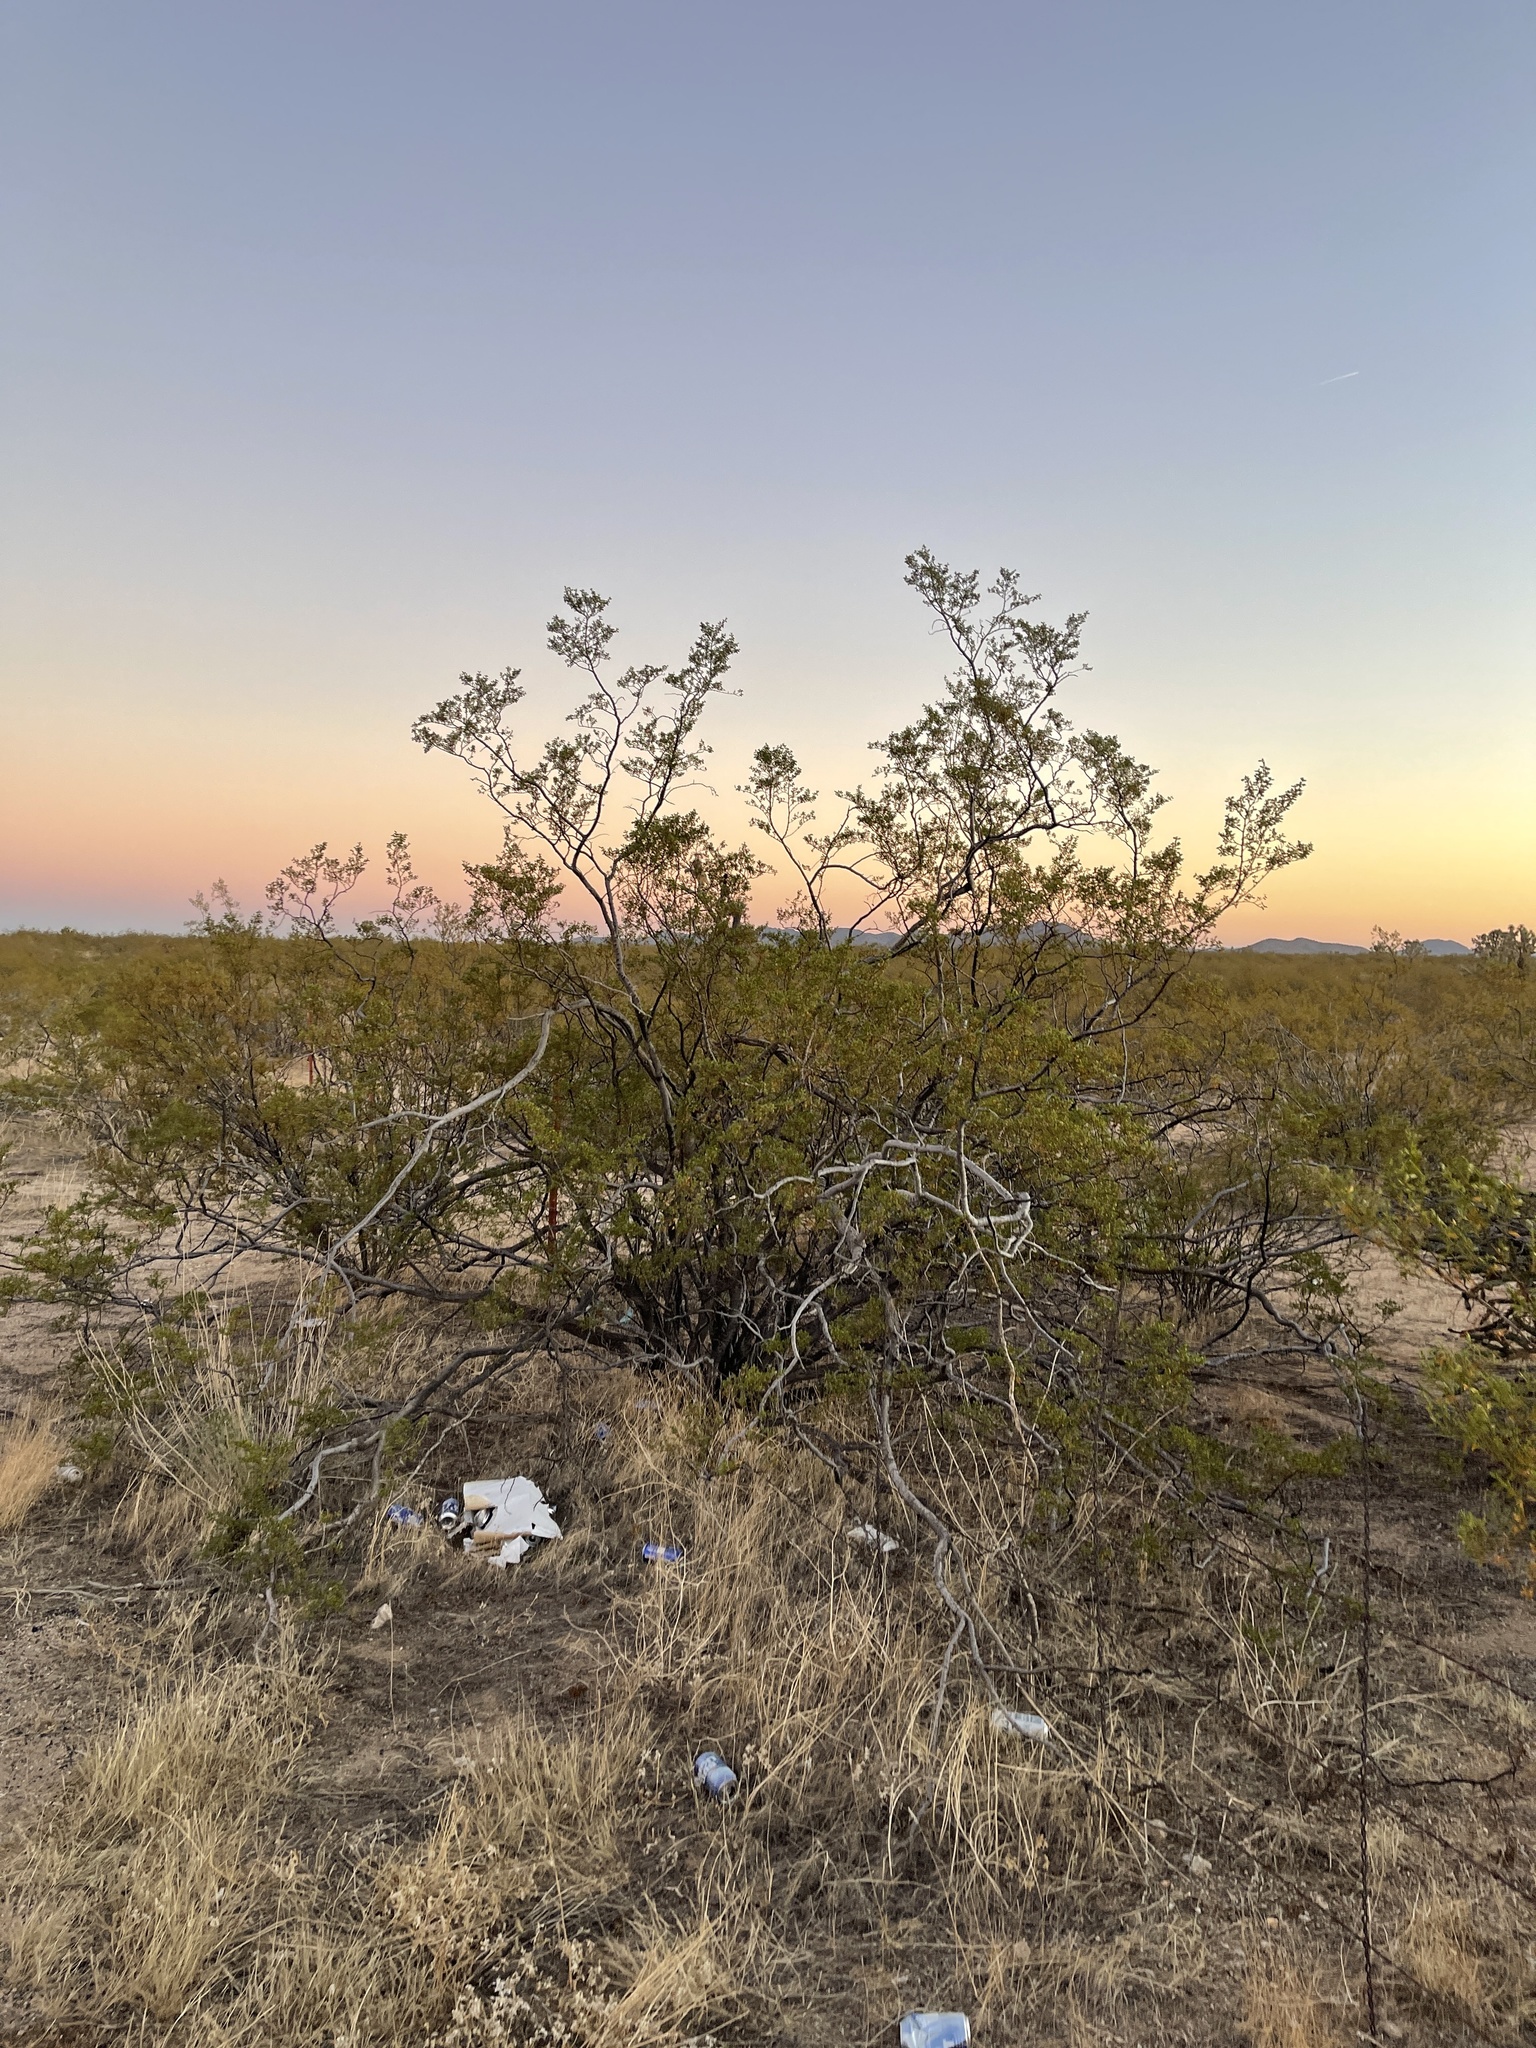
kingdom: Plantae
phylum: Tracheophyta
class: Magnoliopsida
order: Zygophyllales
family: Zygophyllaceae
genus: Larrea
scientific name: Larrea tridentata
